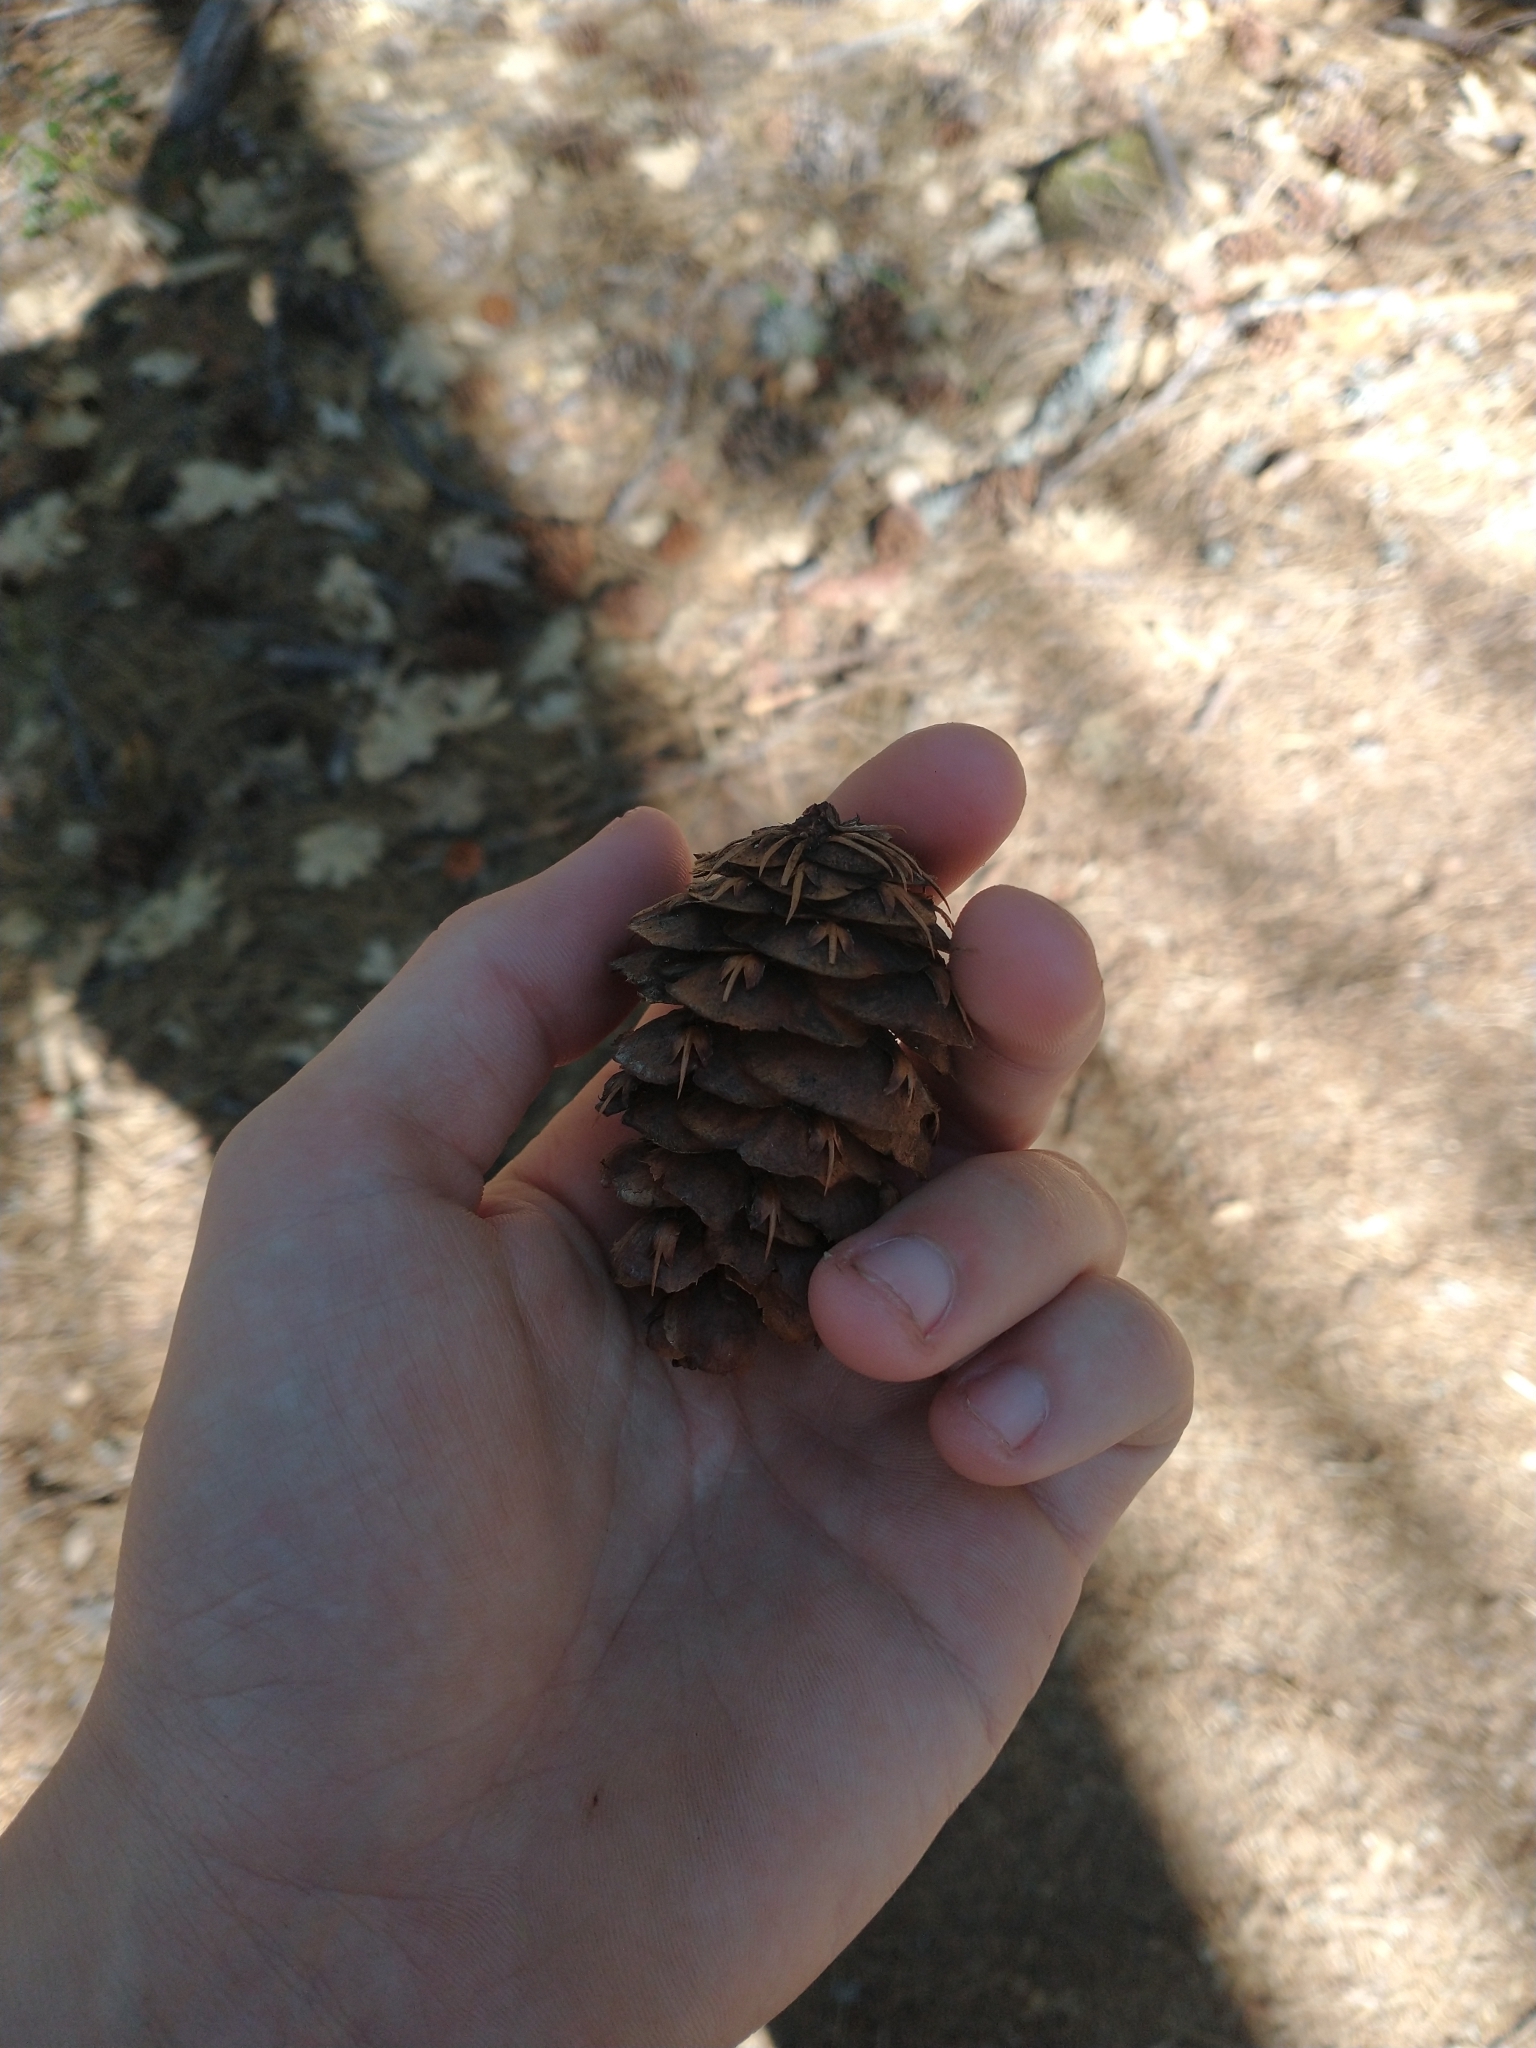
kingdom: Plantae
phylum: Tracheophyta
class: Pinopsida
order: Pinales
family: Pinaceae
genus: Pseudotsuga
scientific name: Pseudotsuga menziesii
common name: Douglas fir
